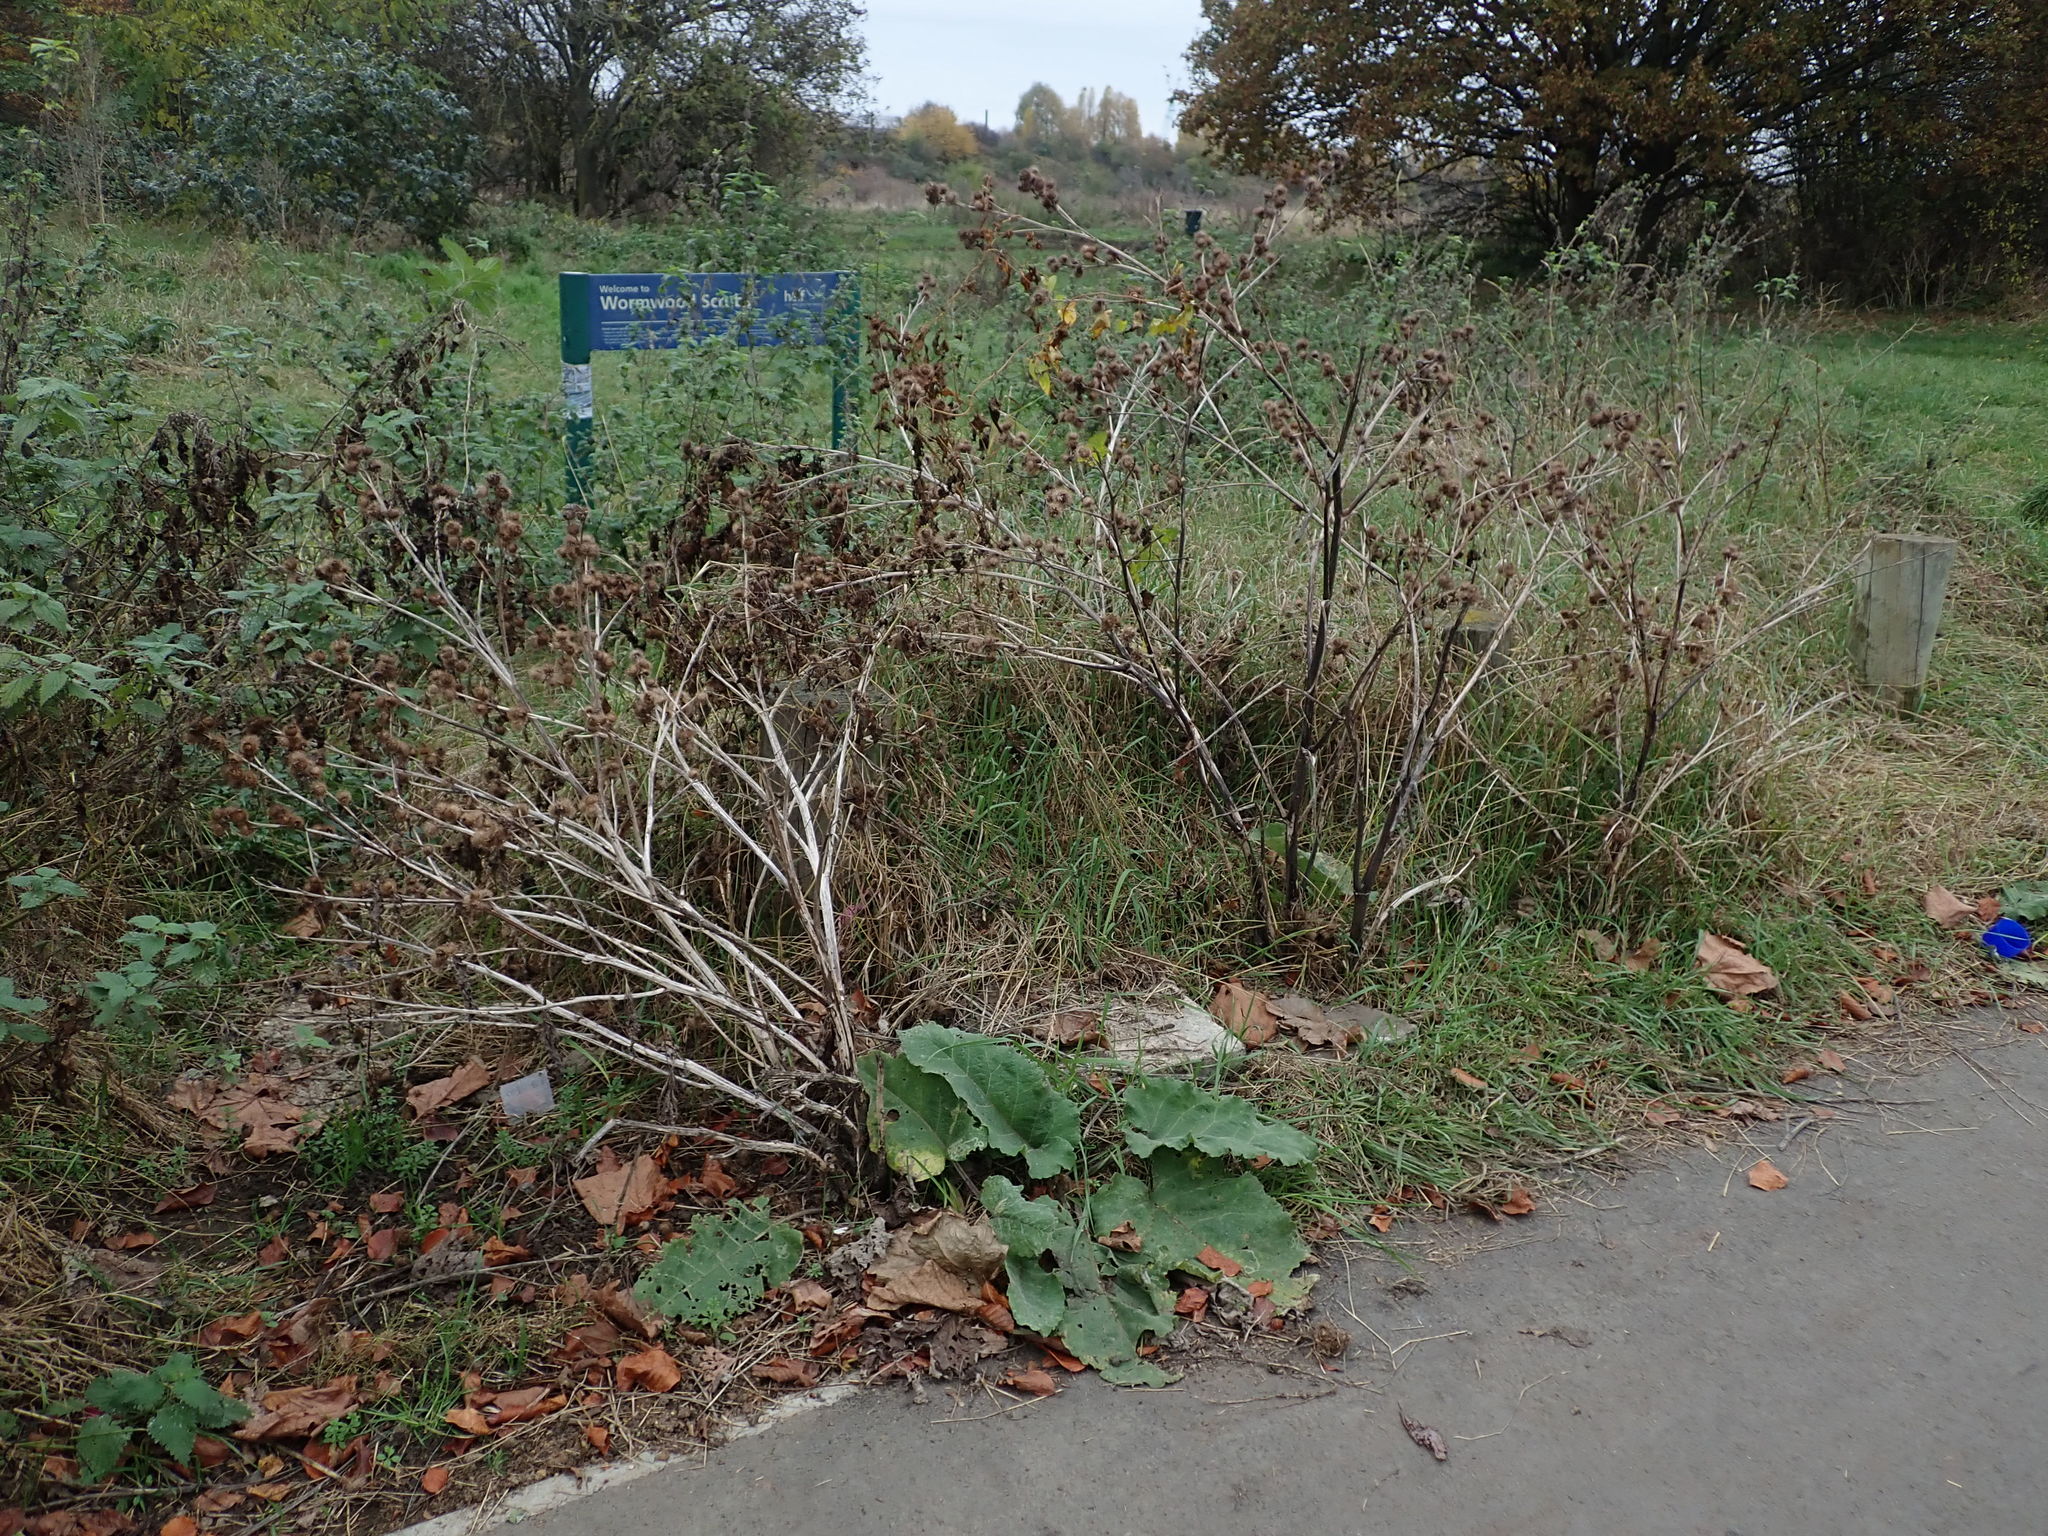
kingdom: Plantae
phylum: Tracheophyta
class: Magnoliopsida
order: Asterales
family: Asteraceae
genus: Arctium
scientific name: Arctium minus
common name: Lesser burdock
